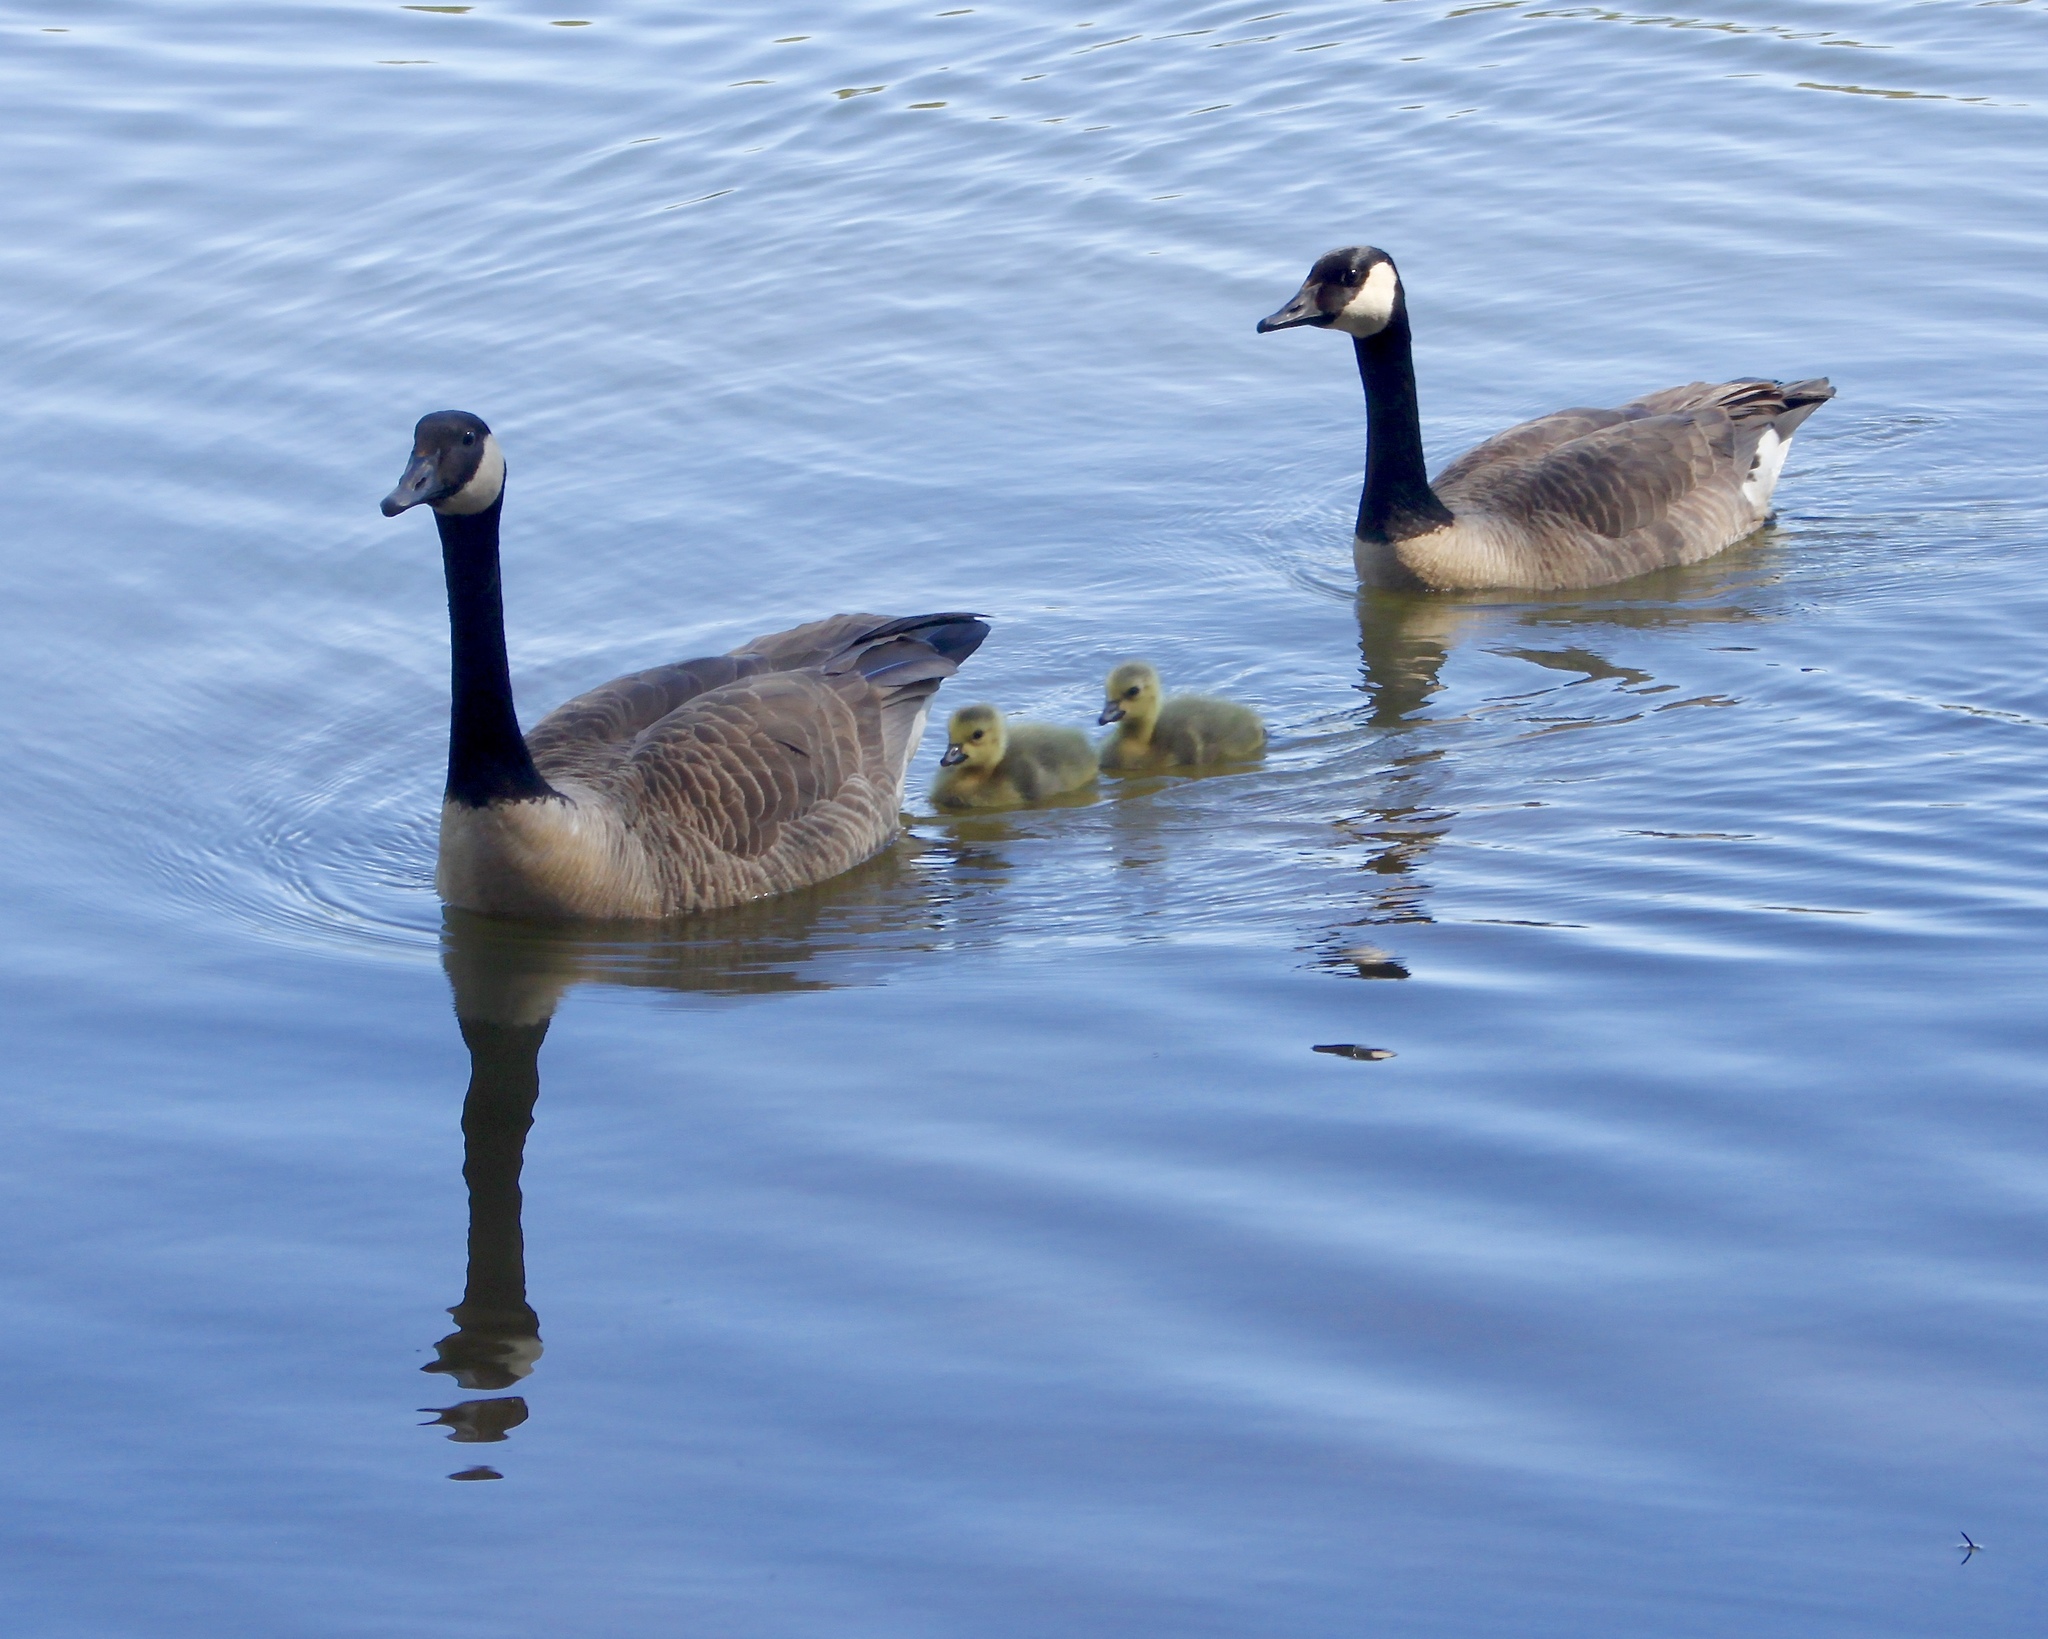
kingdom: Animalia
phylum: Chordata
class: Aves
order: Anseriformes
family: Anatidae
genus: Branta
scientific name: Branta canadensis
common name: Canada goose
